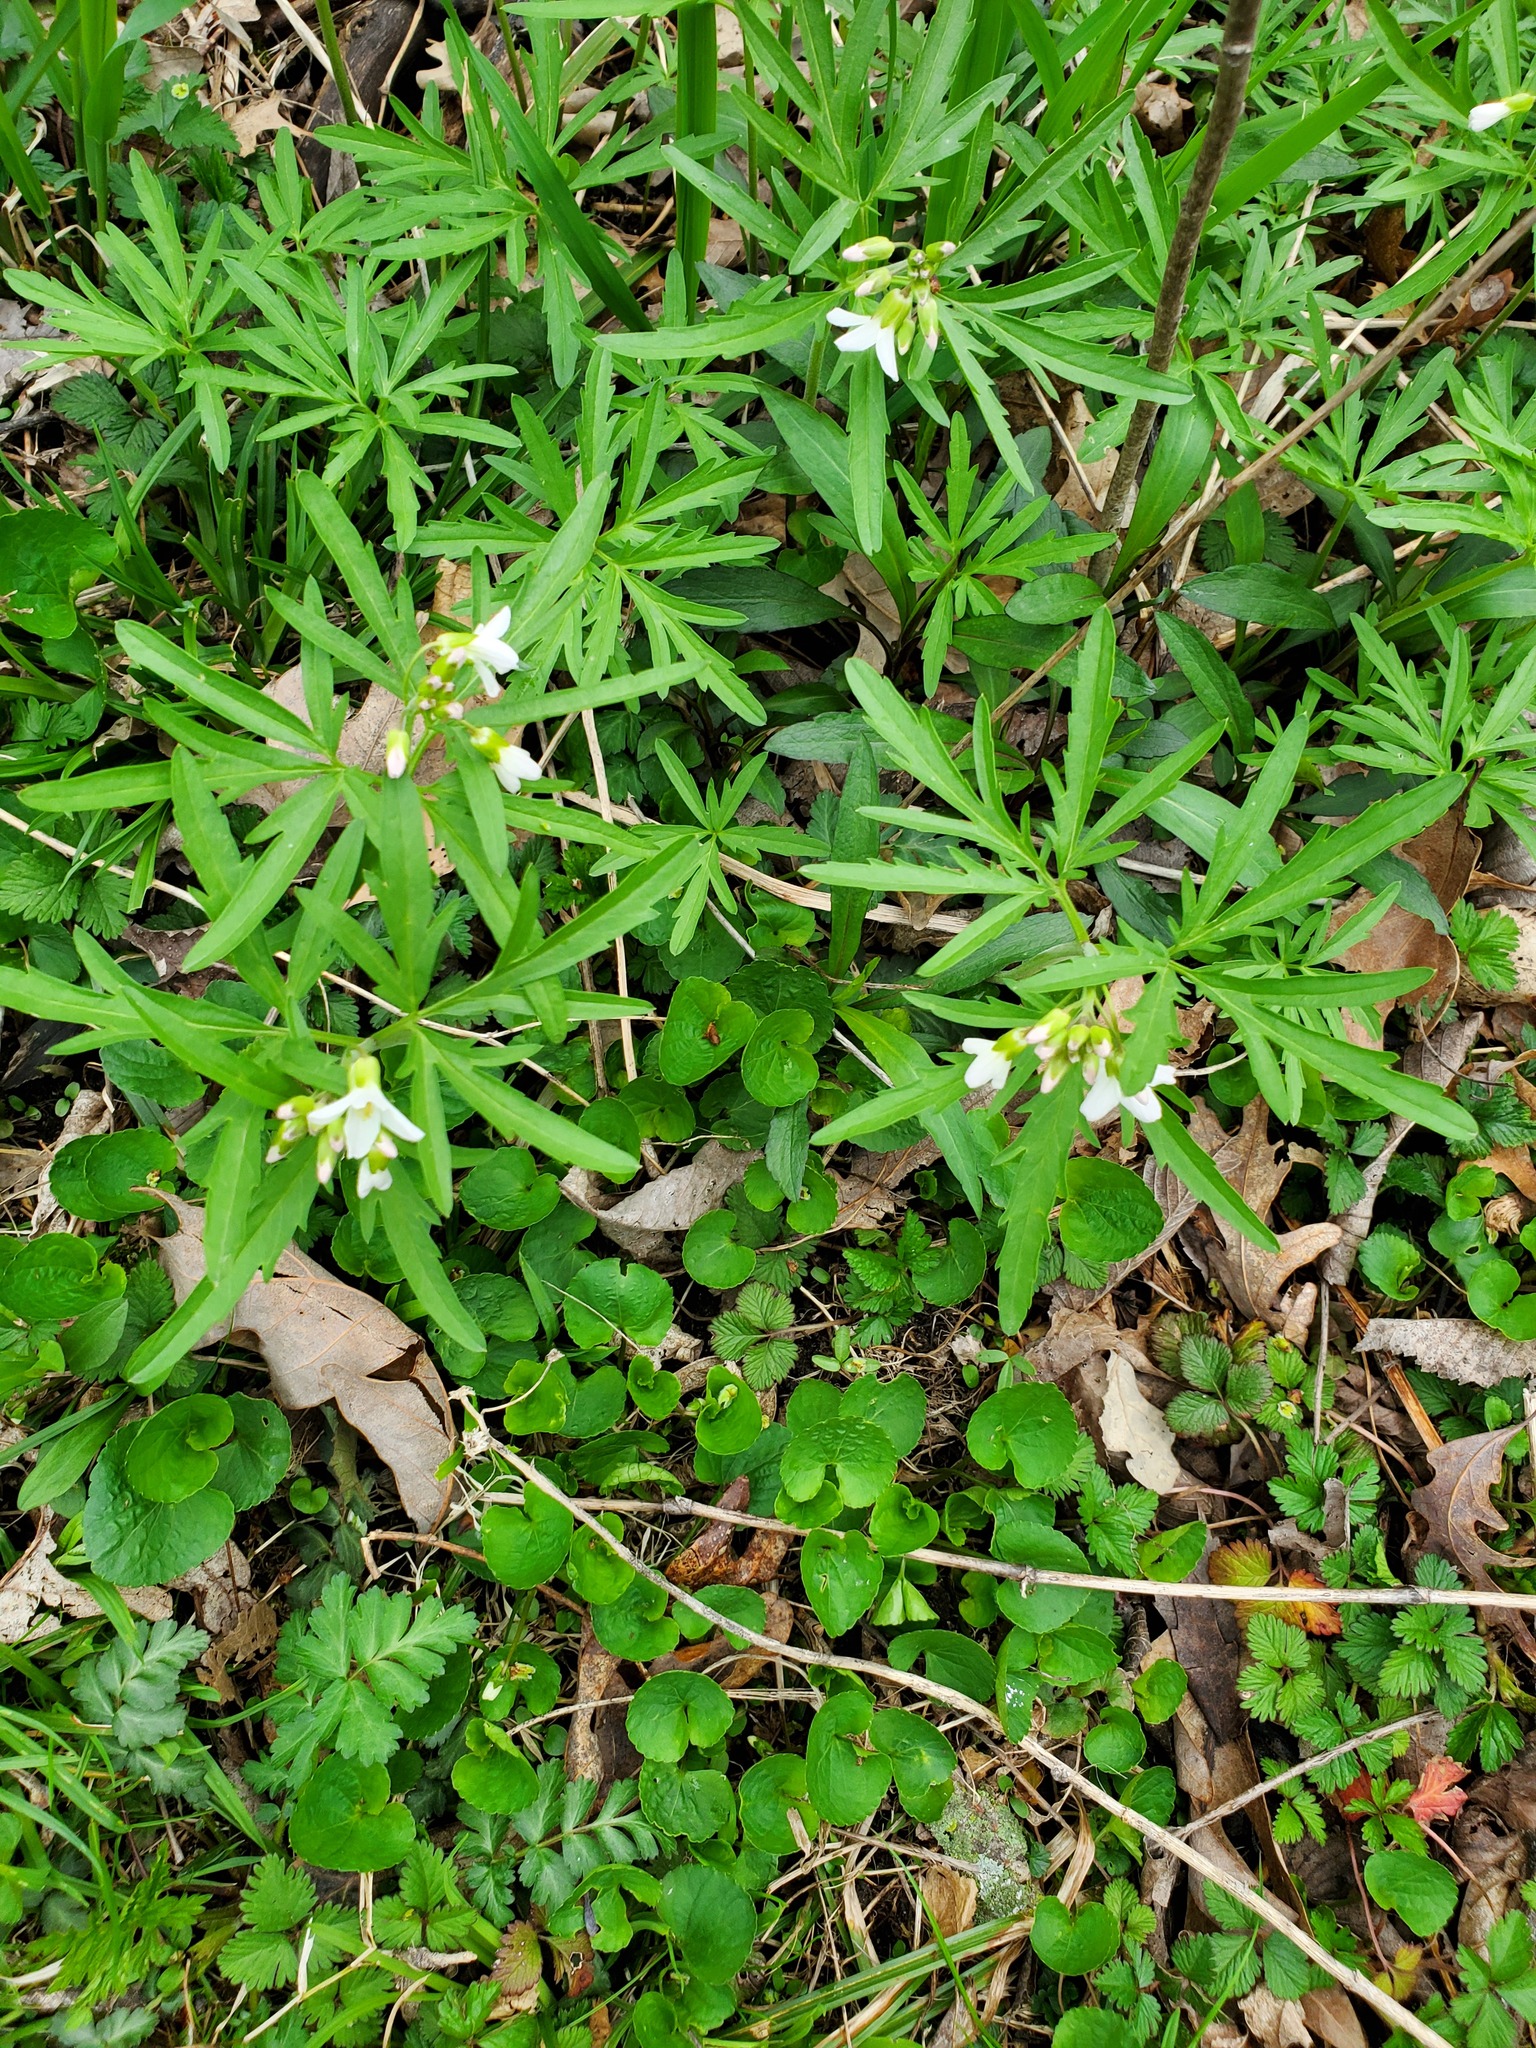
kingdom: Plantae
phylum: Tracheophyta
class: Magnoliopsida
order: Brassicales
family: Brassicaceae
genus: Cardamine
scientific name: Cardamine concatenata
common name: Cut-leaf toothcup
